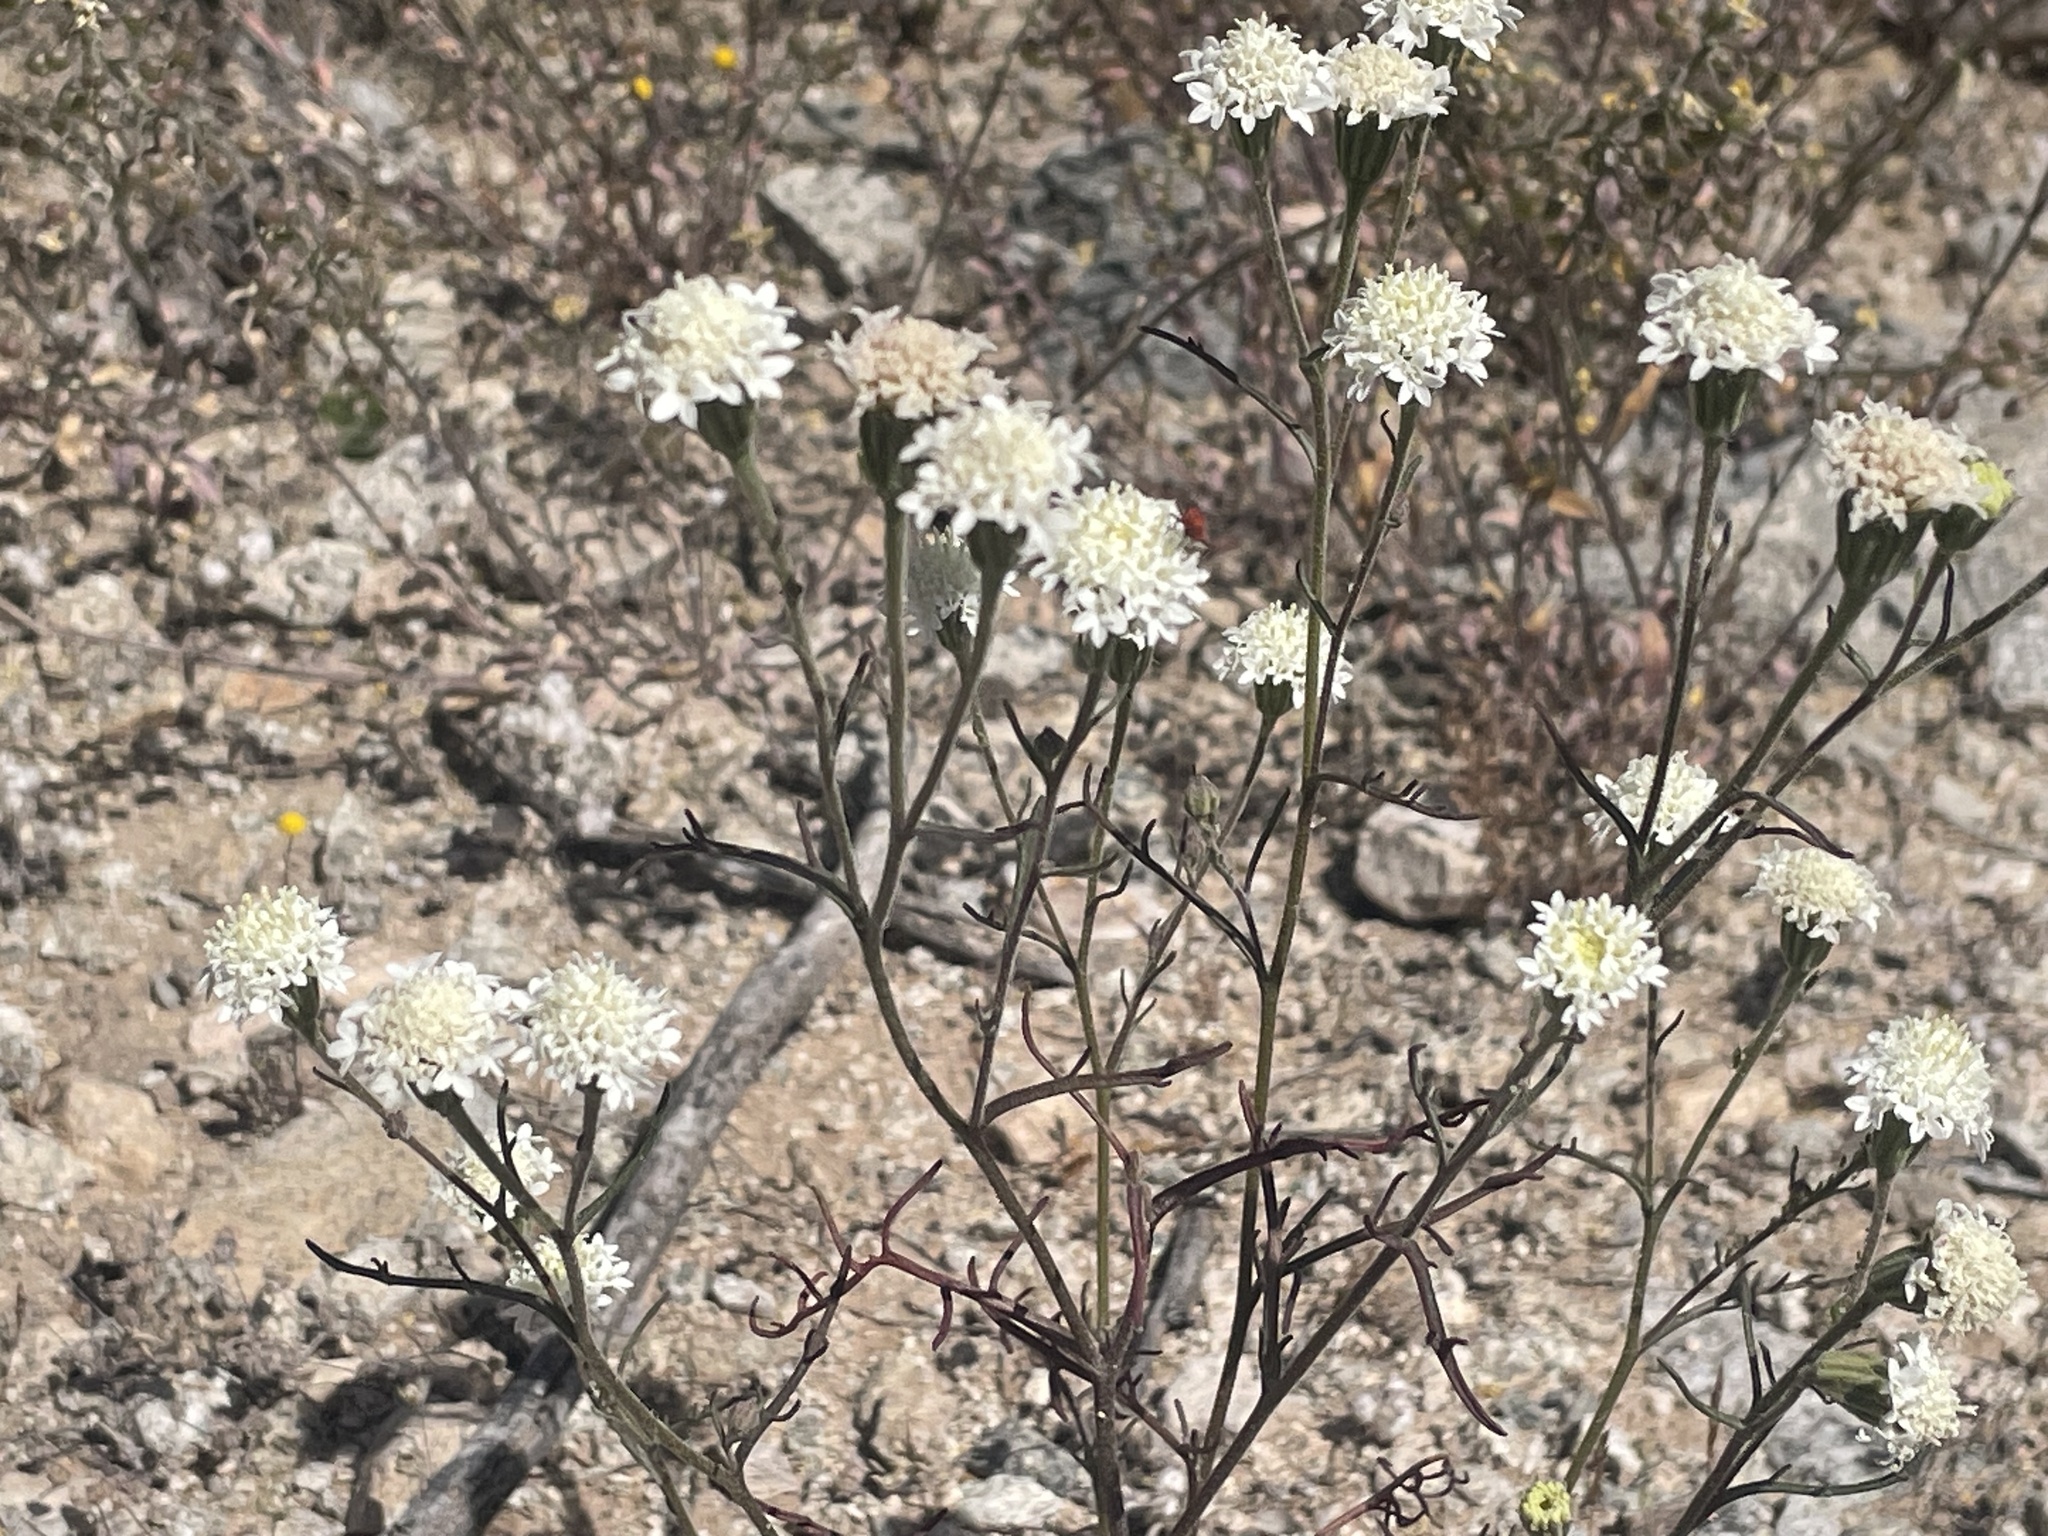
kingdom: Plantae
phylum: Tracheophyta
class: Magnoliopsida
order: Asterales
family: Asteraceae
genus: Chaenactis
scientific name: Chaenactis stevioides
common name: Desert pincushion
